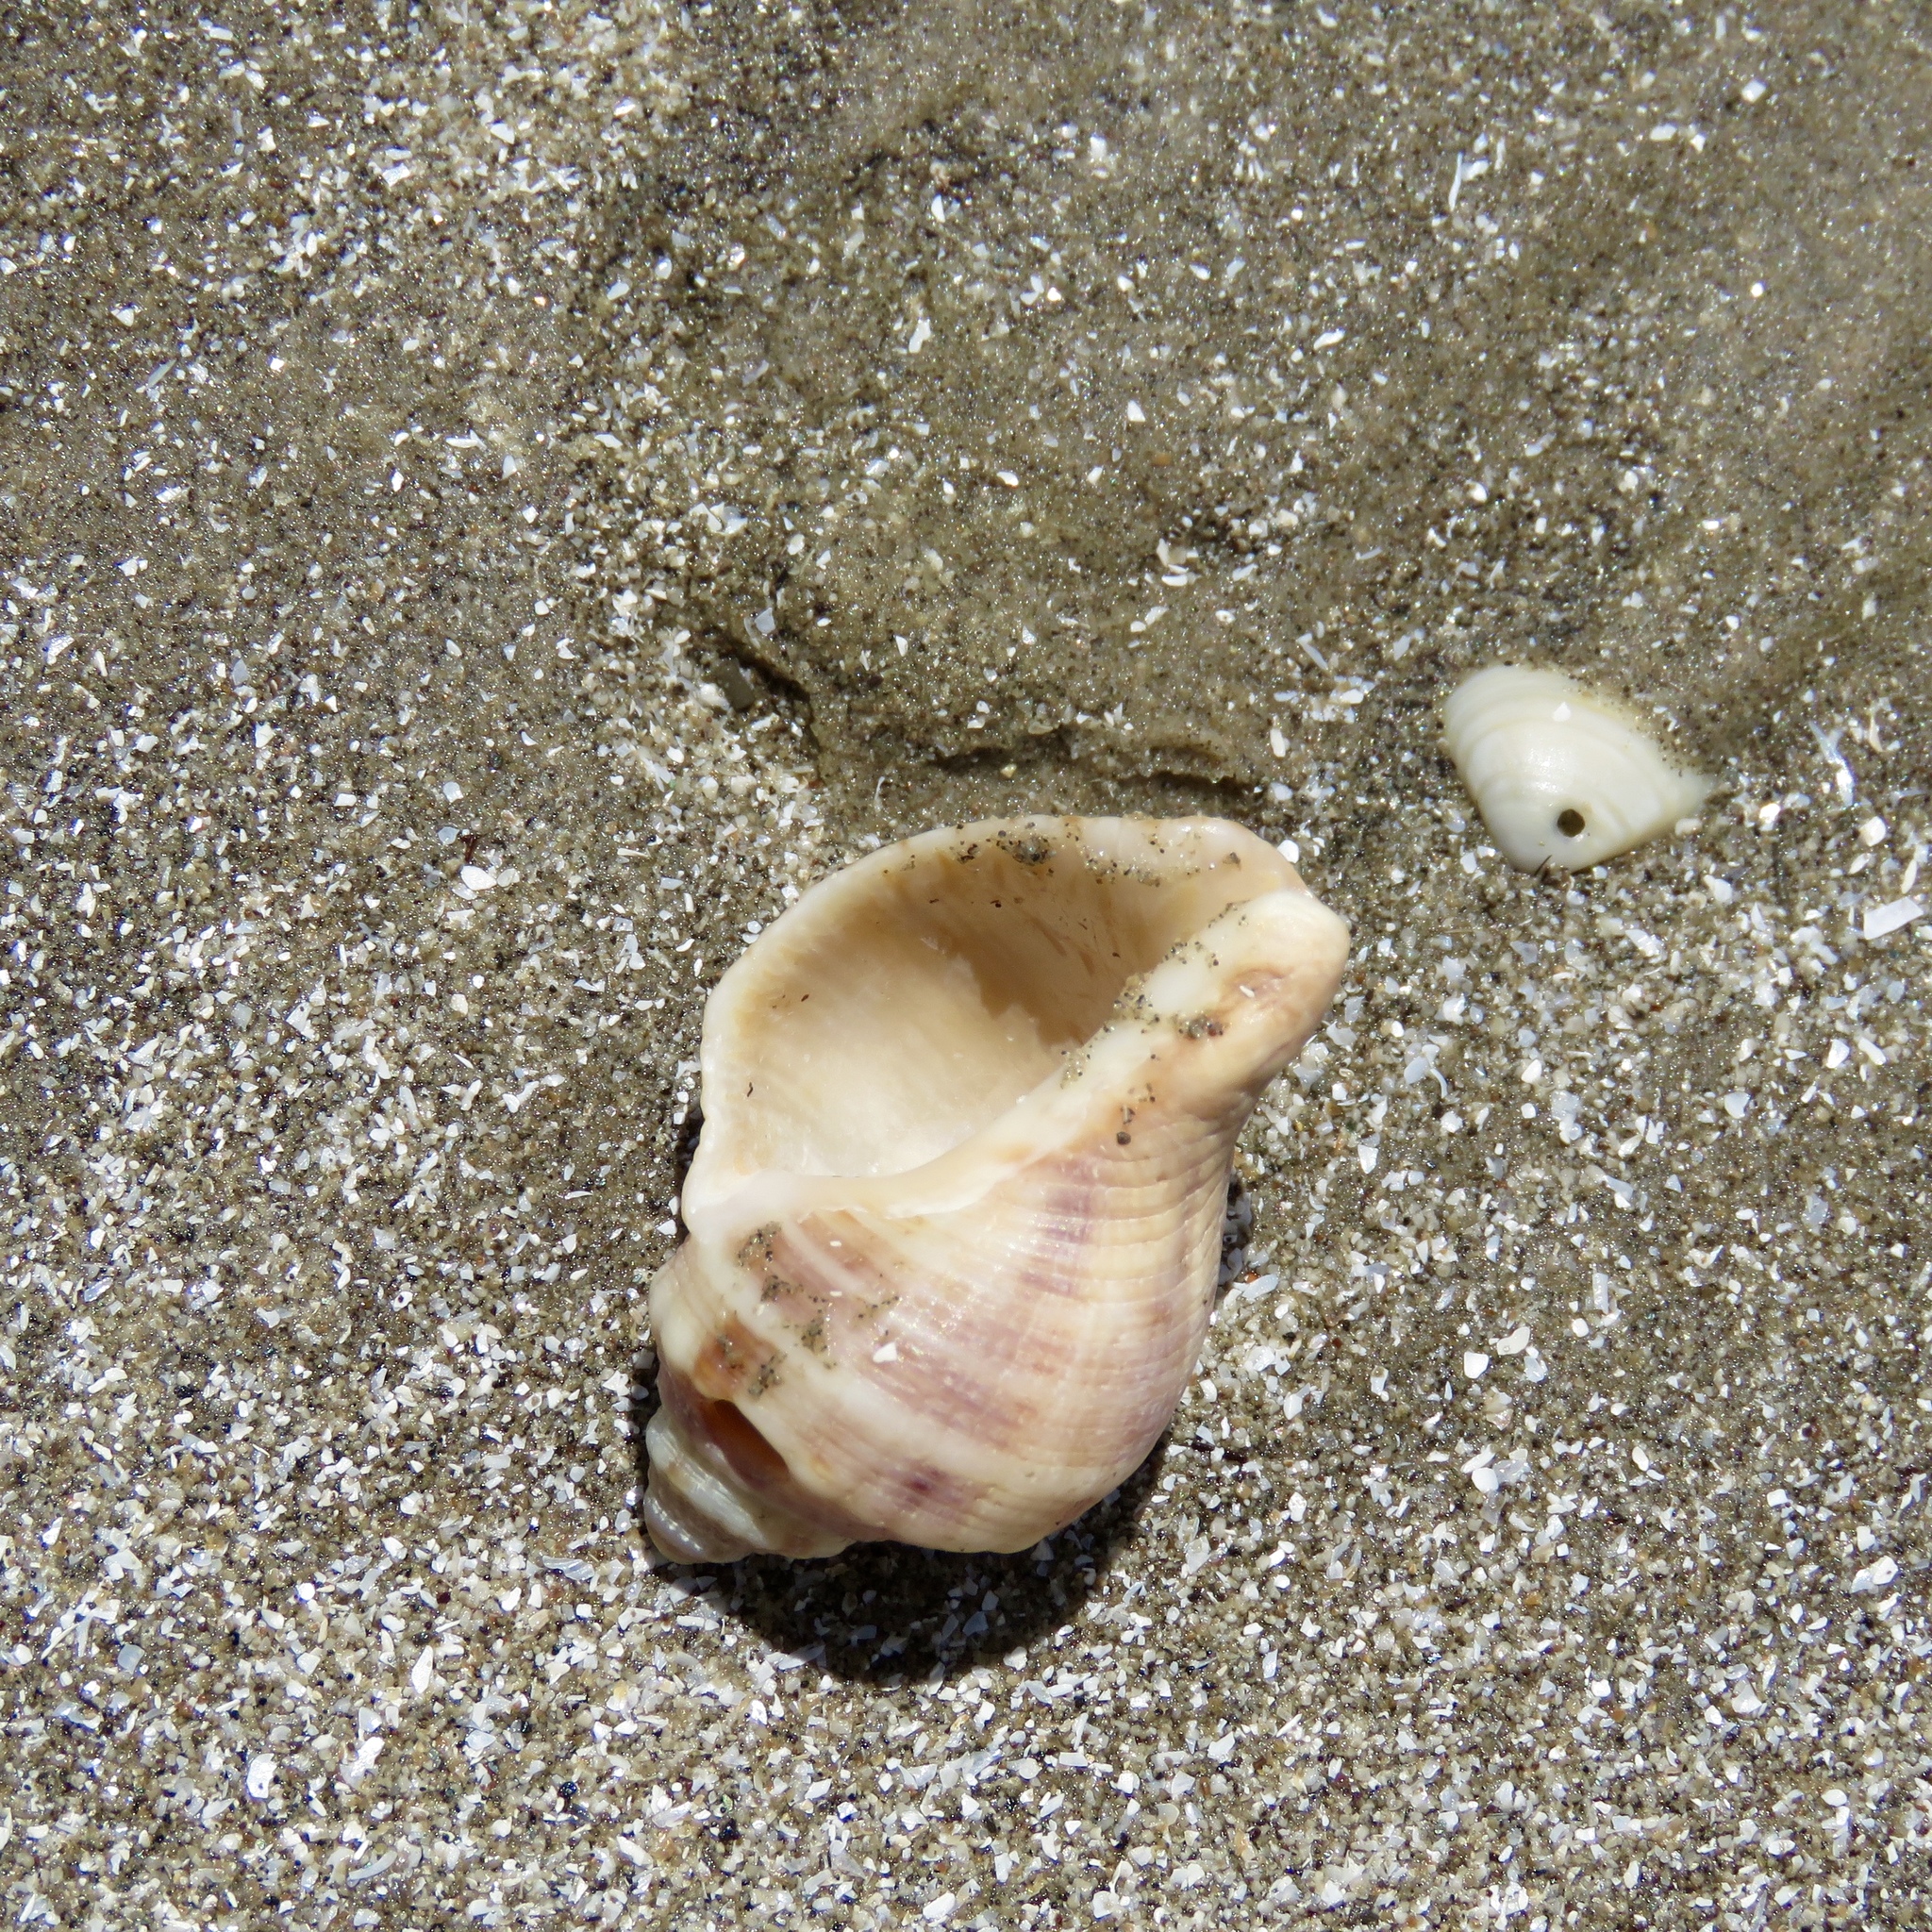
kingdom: Animalia
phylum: Mollusca
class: Gastropoda
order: Neogastropoda
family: Muricidae
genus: Stramonita
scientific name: Stramonita floridana
